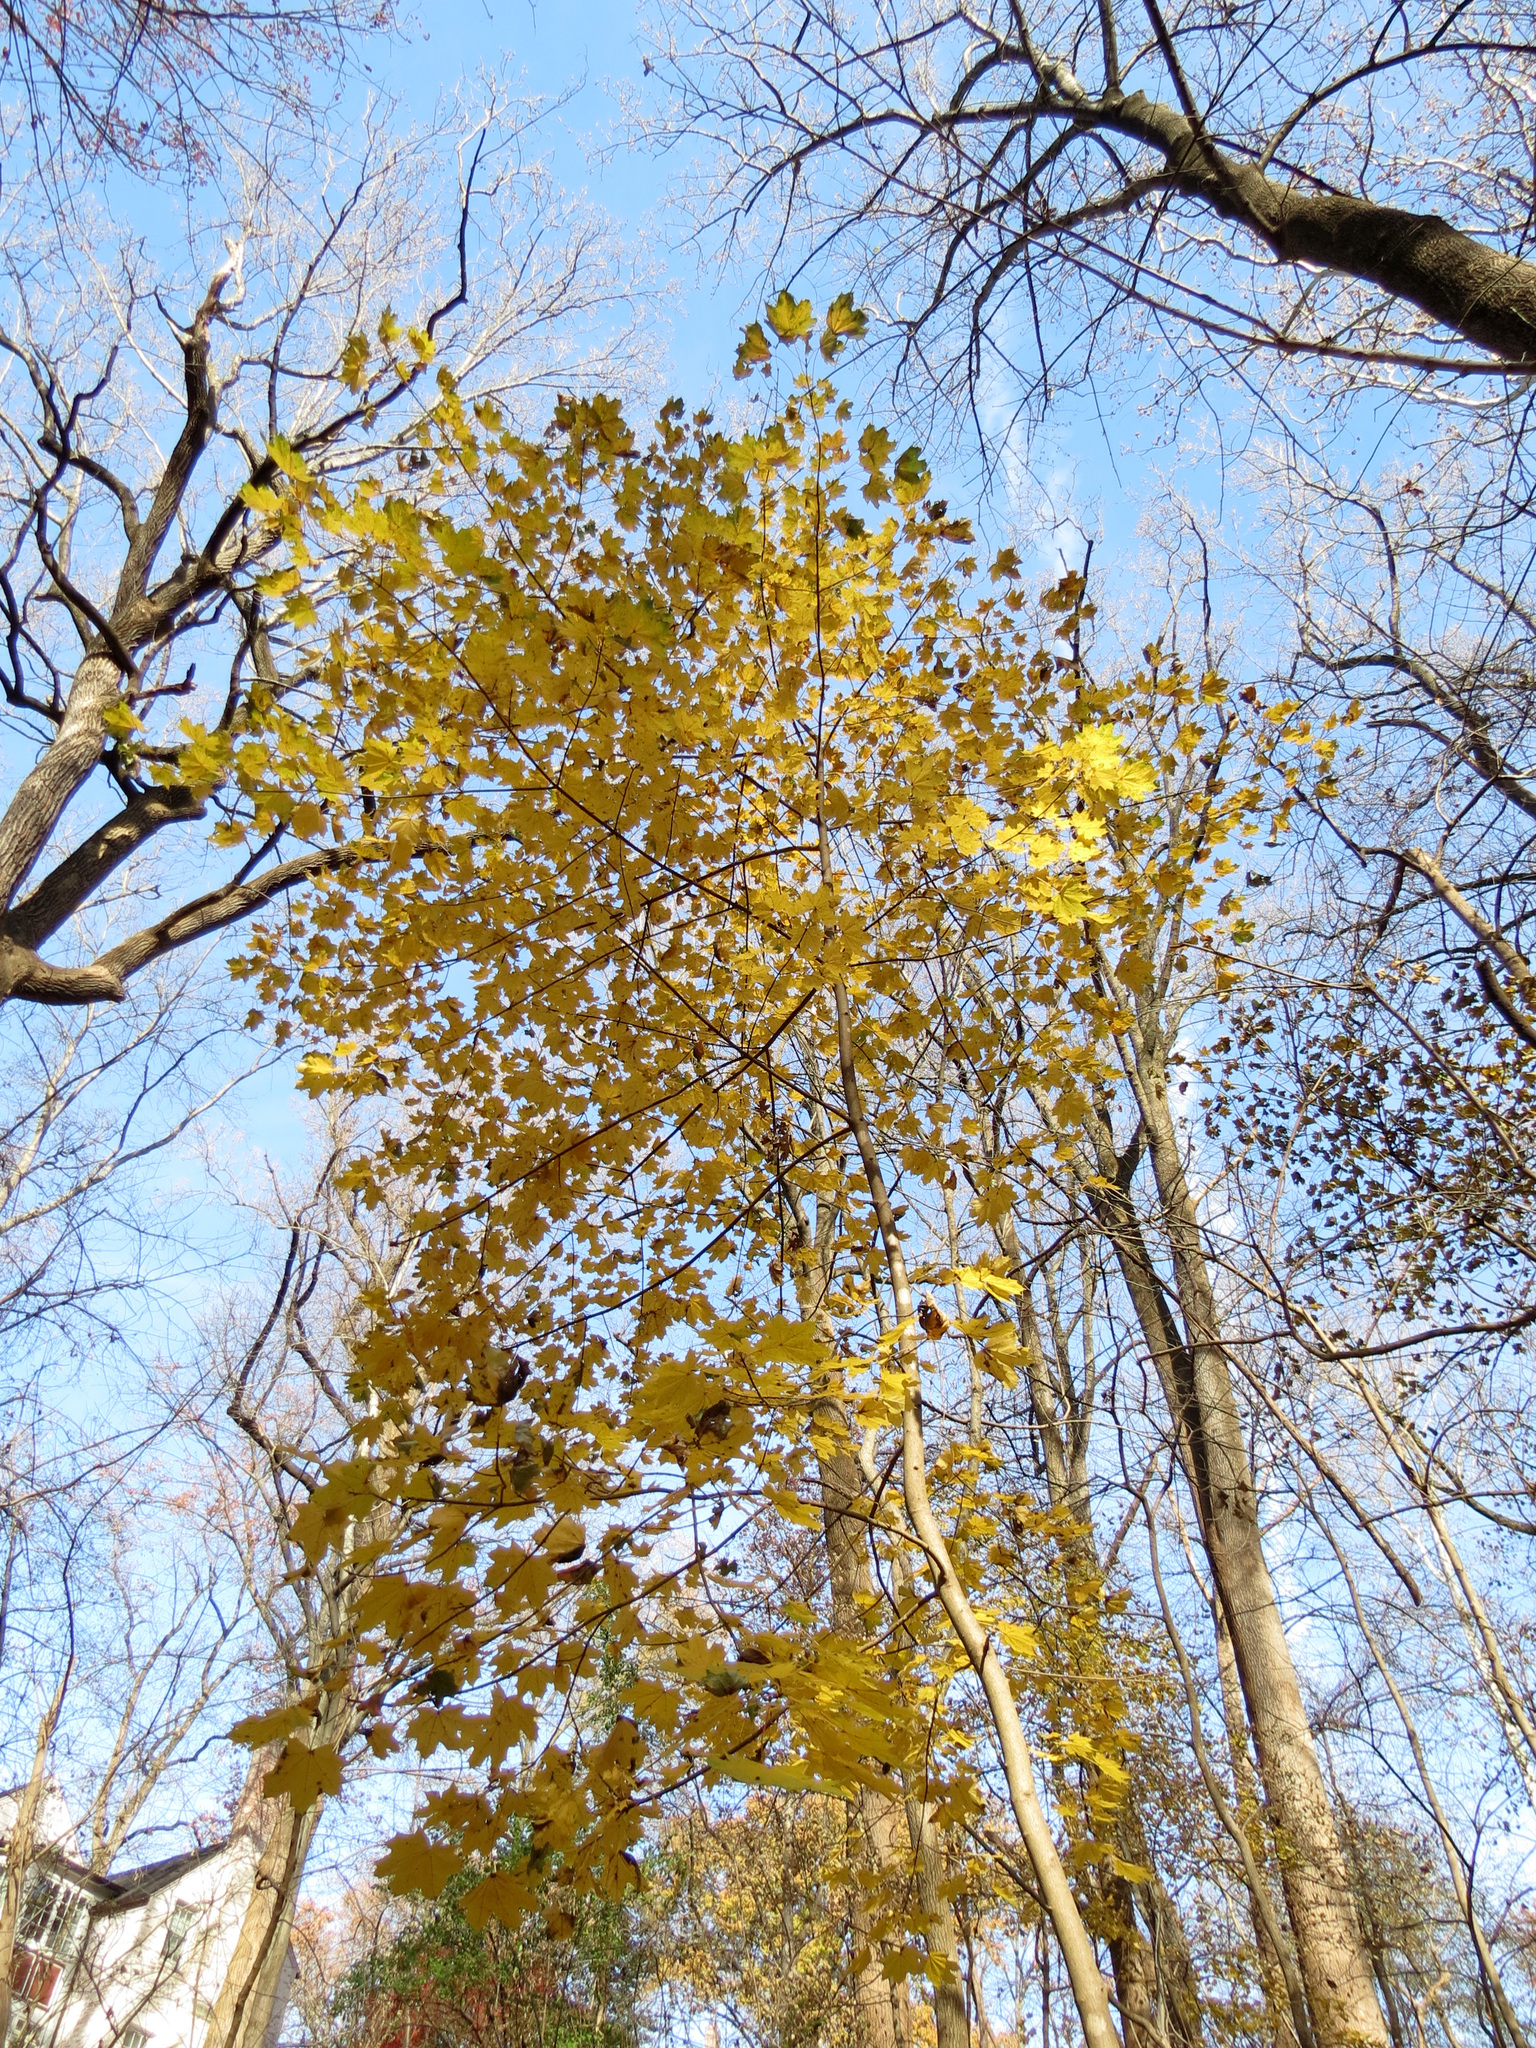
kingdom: Plantae
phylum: Tracheophyta
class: Magnoliopsida
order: Sapindales
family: Sapindaceae
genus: Acer
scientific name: Acer platanoides
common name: Norway maple
